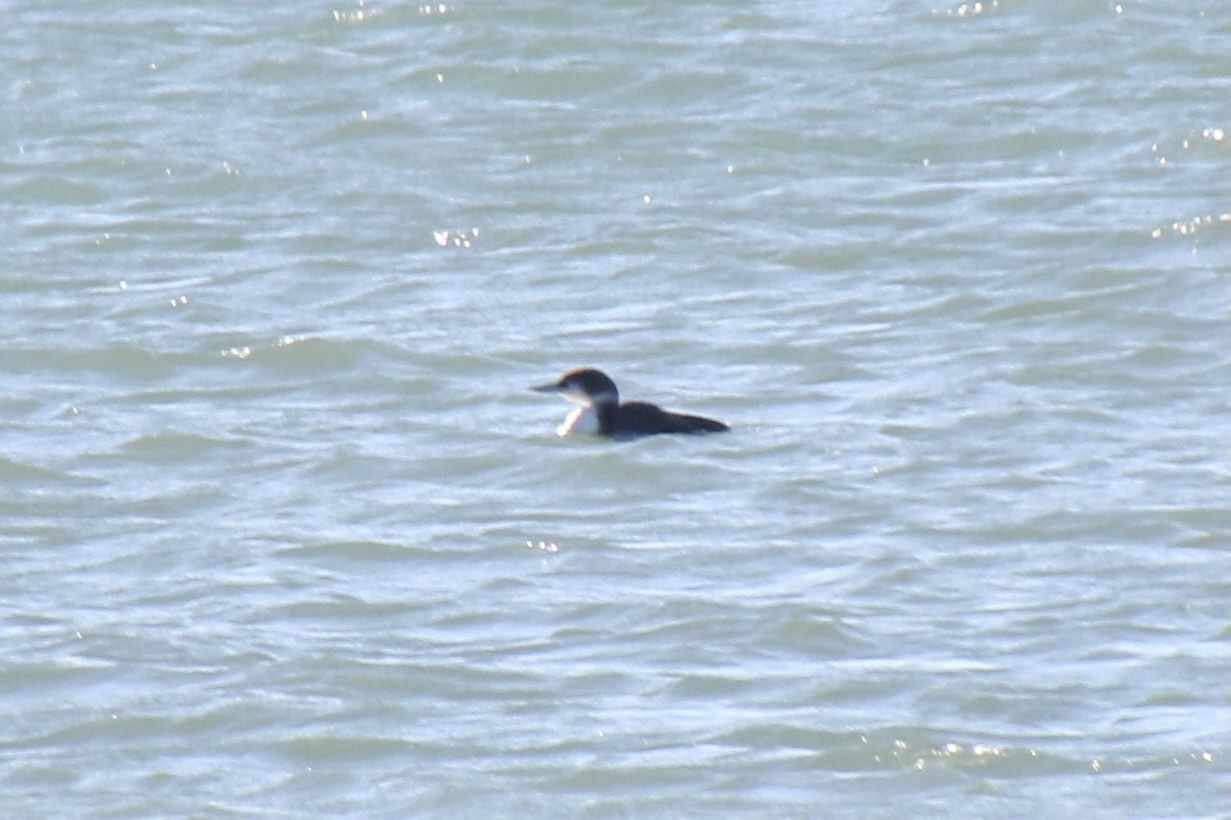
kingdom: Animalia
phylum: Chordata
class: Aves
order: Gaviiformes
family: Gaviidae
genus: Gavia
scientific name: Gavia immer
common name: Common loon
